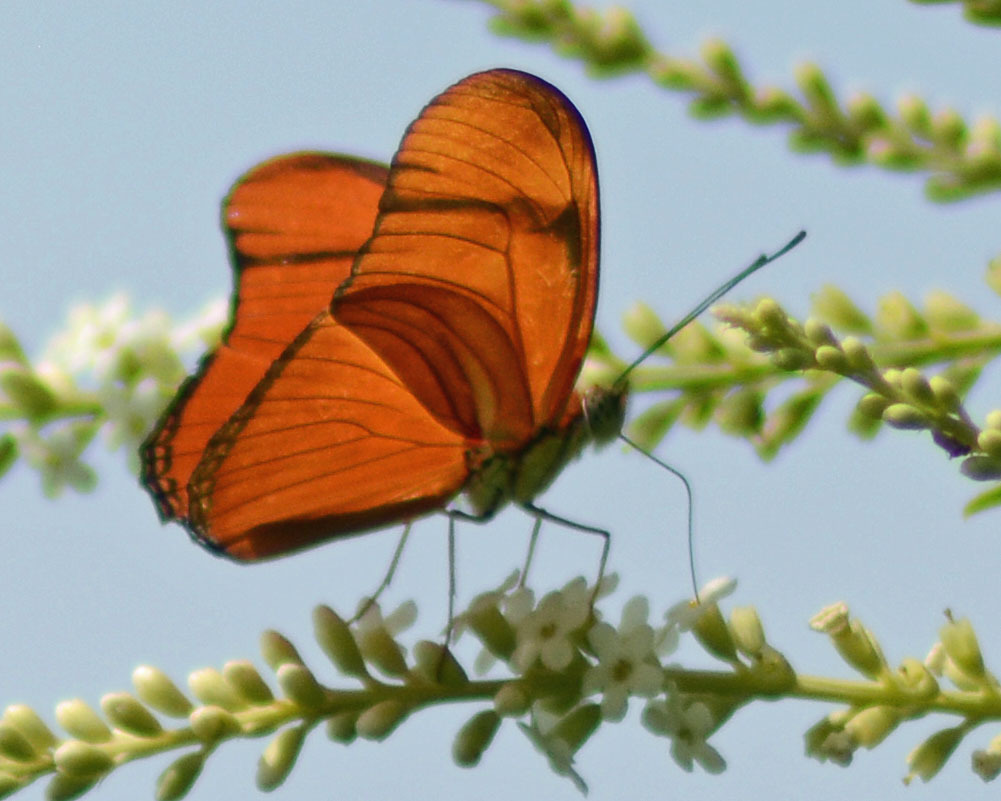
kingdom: Animalia
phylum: Arthropoda
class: Insecta
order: Lepidoptera
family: Nymphalidae
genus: Dryas
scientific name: Dryas iulia
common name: Flambeau
